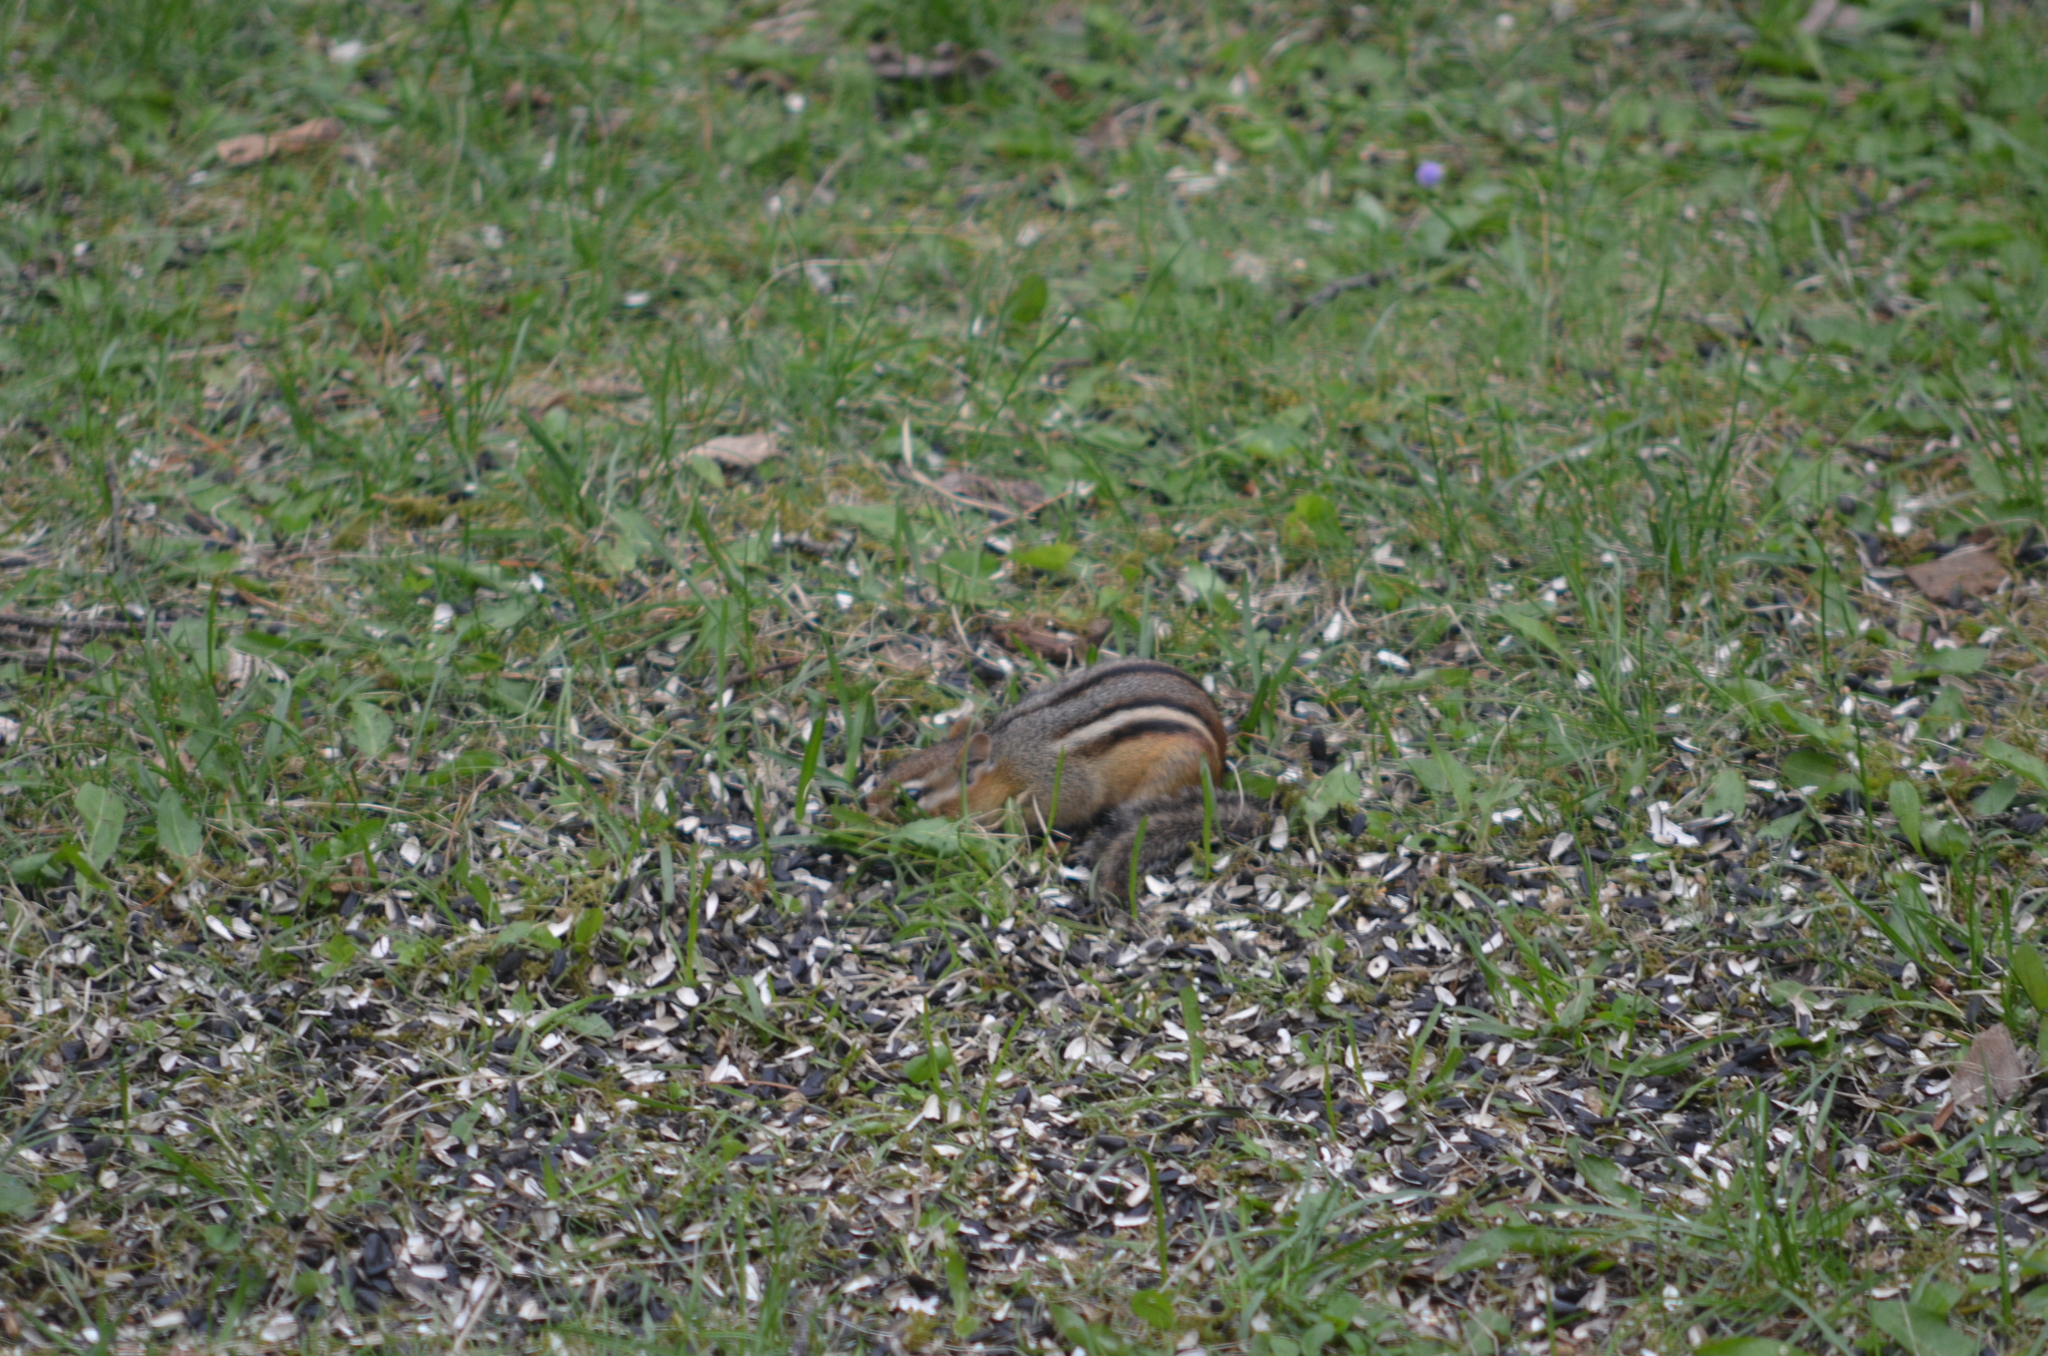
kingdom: Animalia
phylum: Chordata
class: Mammalia
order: Rodentia
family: Sciuridae
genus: Tamias
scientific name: Tamias striatus
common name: Eastern chipmunk
